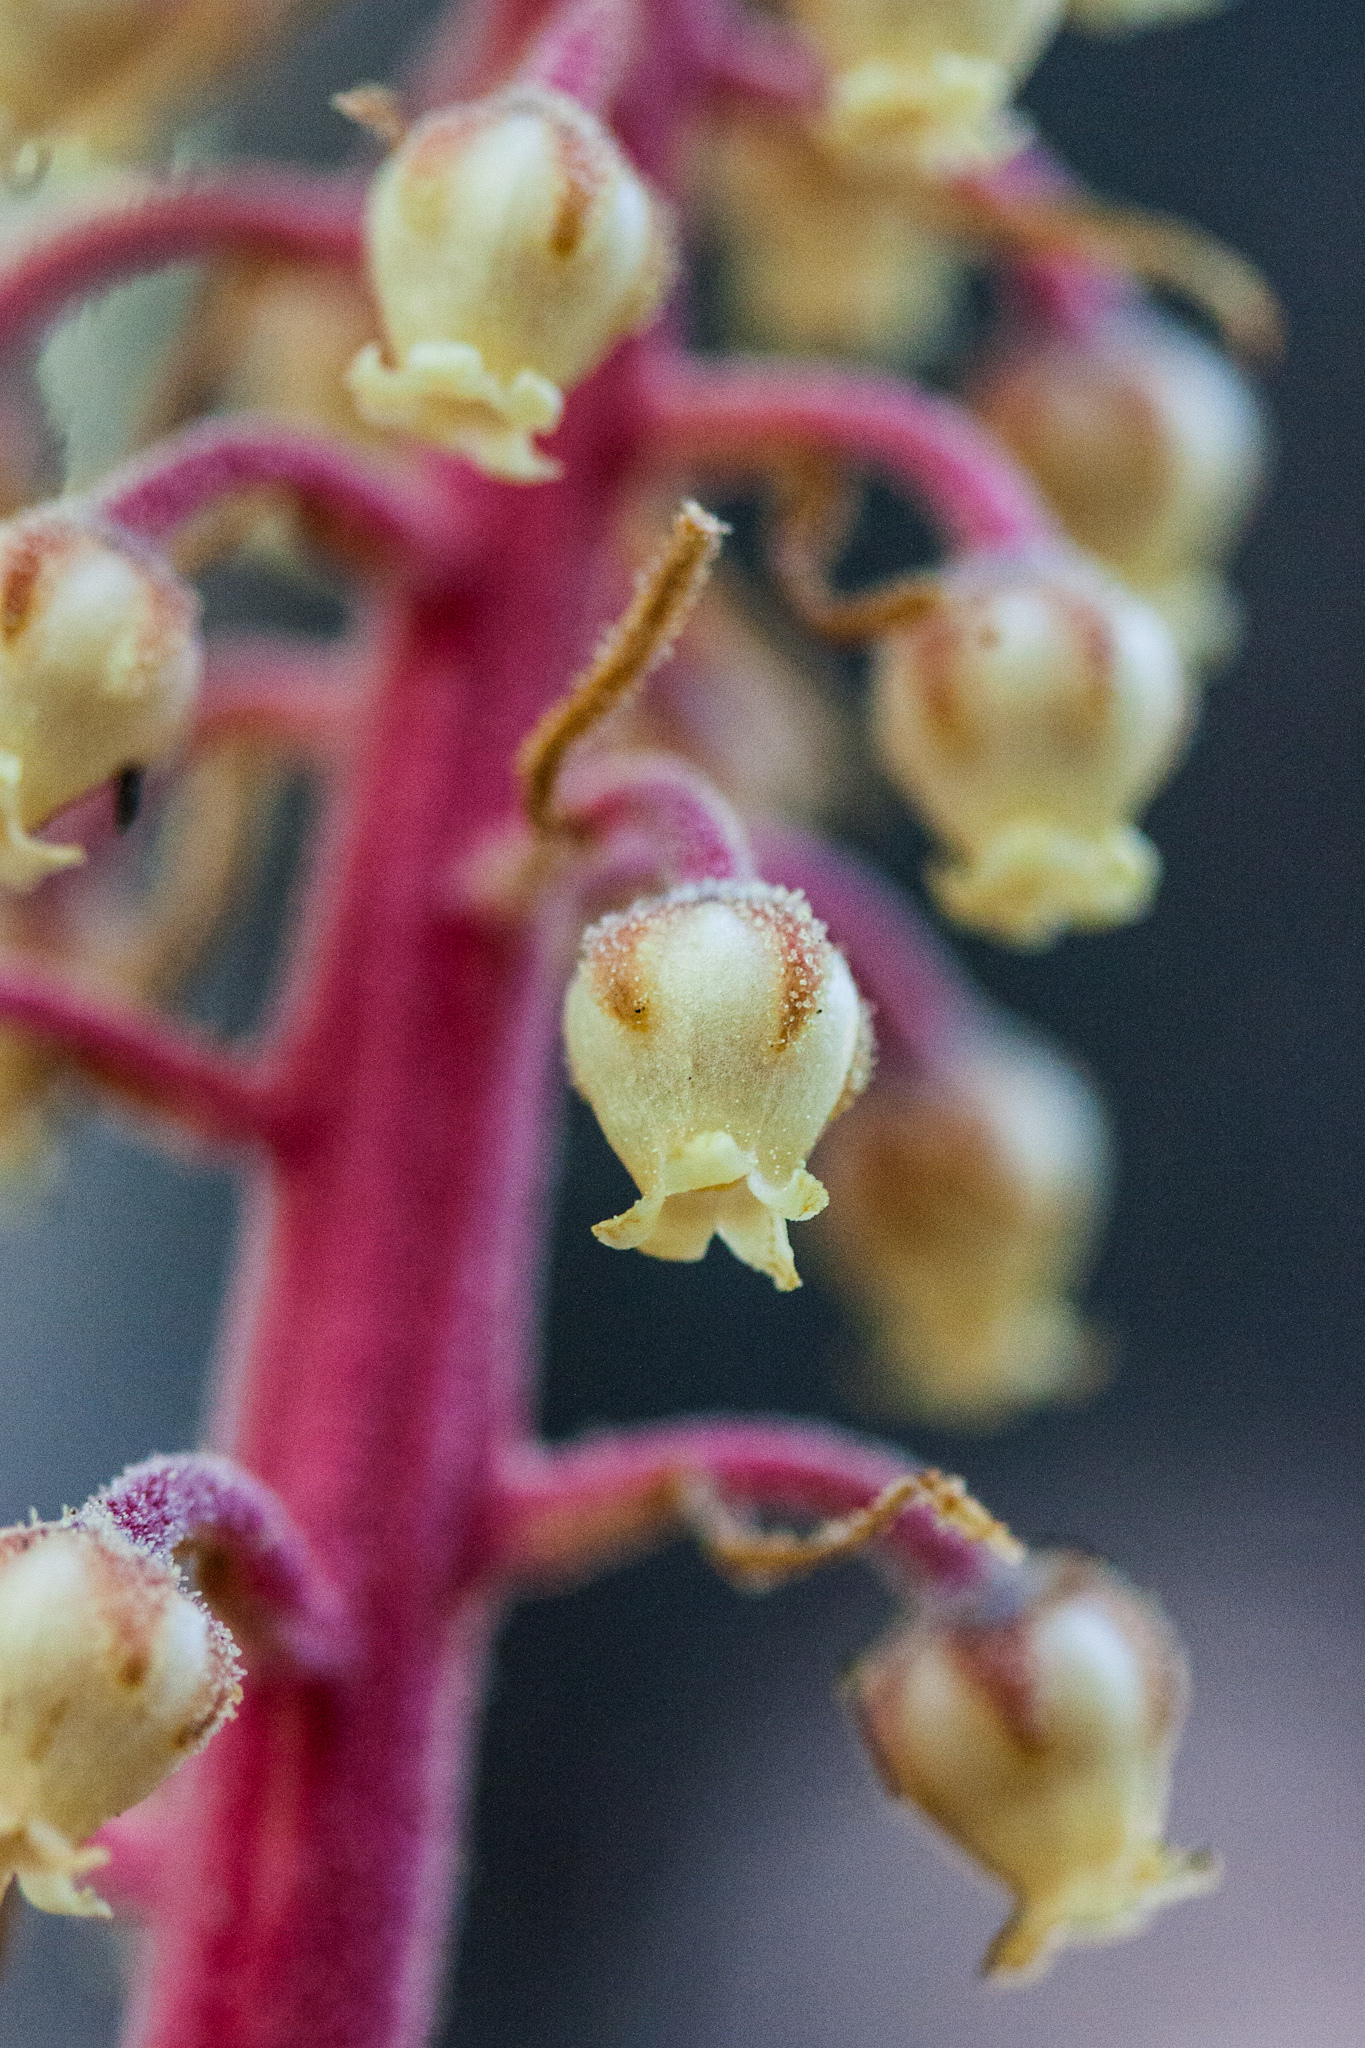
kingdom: Plantae
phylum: Tracheophyta
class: Magnoliopsida
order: Ericales
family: Ericaceae
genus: Pterospora
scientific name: Pterospora andromedea
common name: Giant bird's-nest
